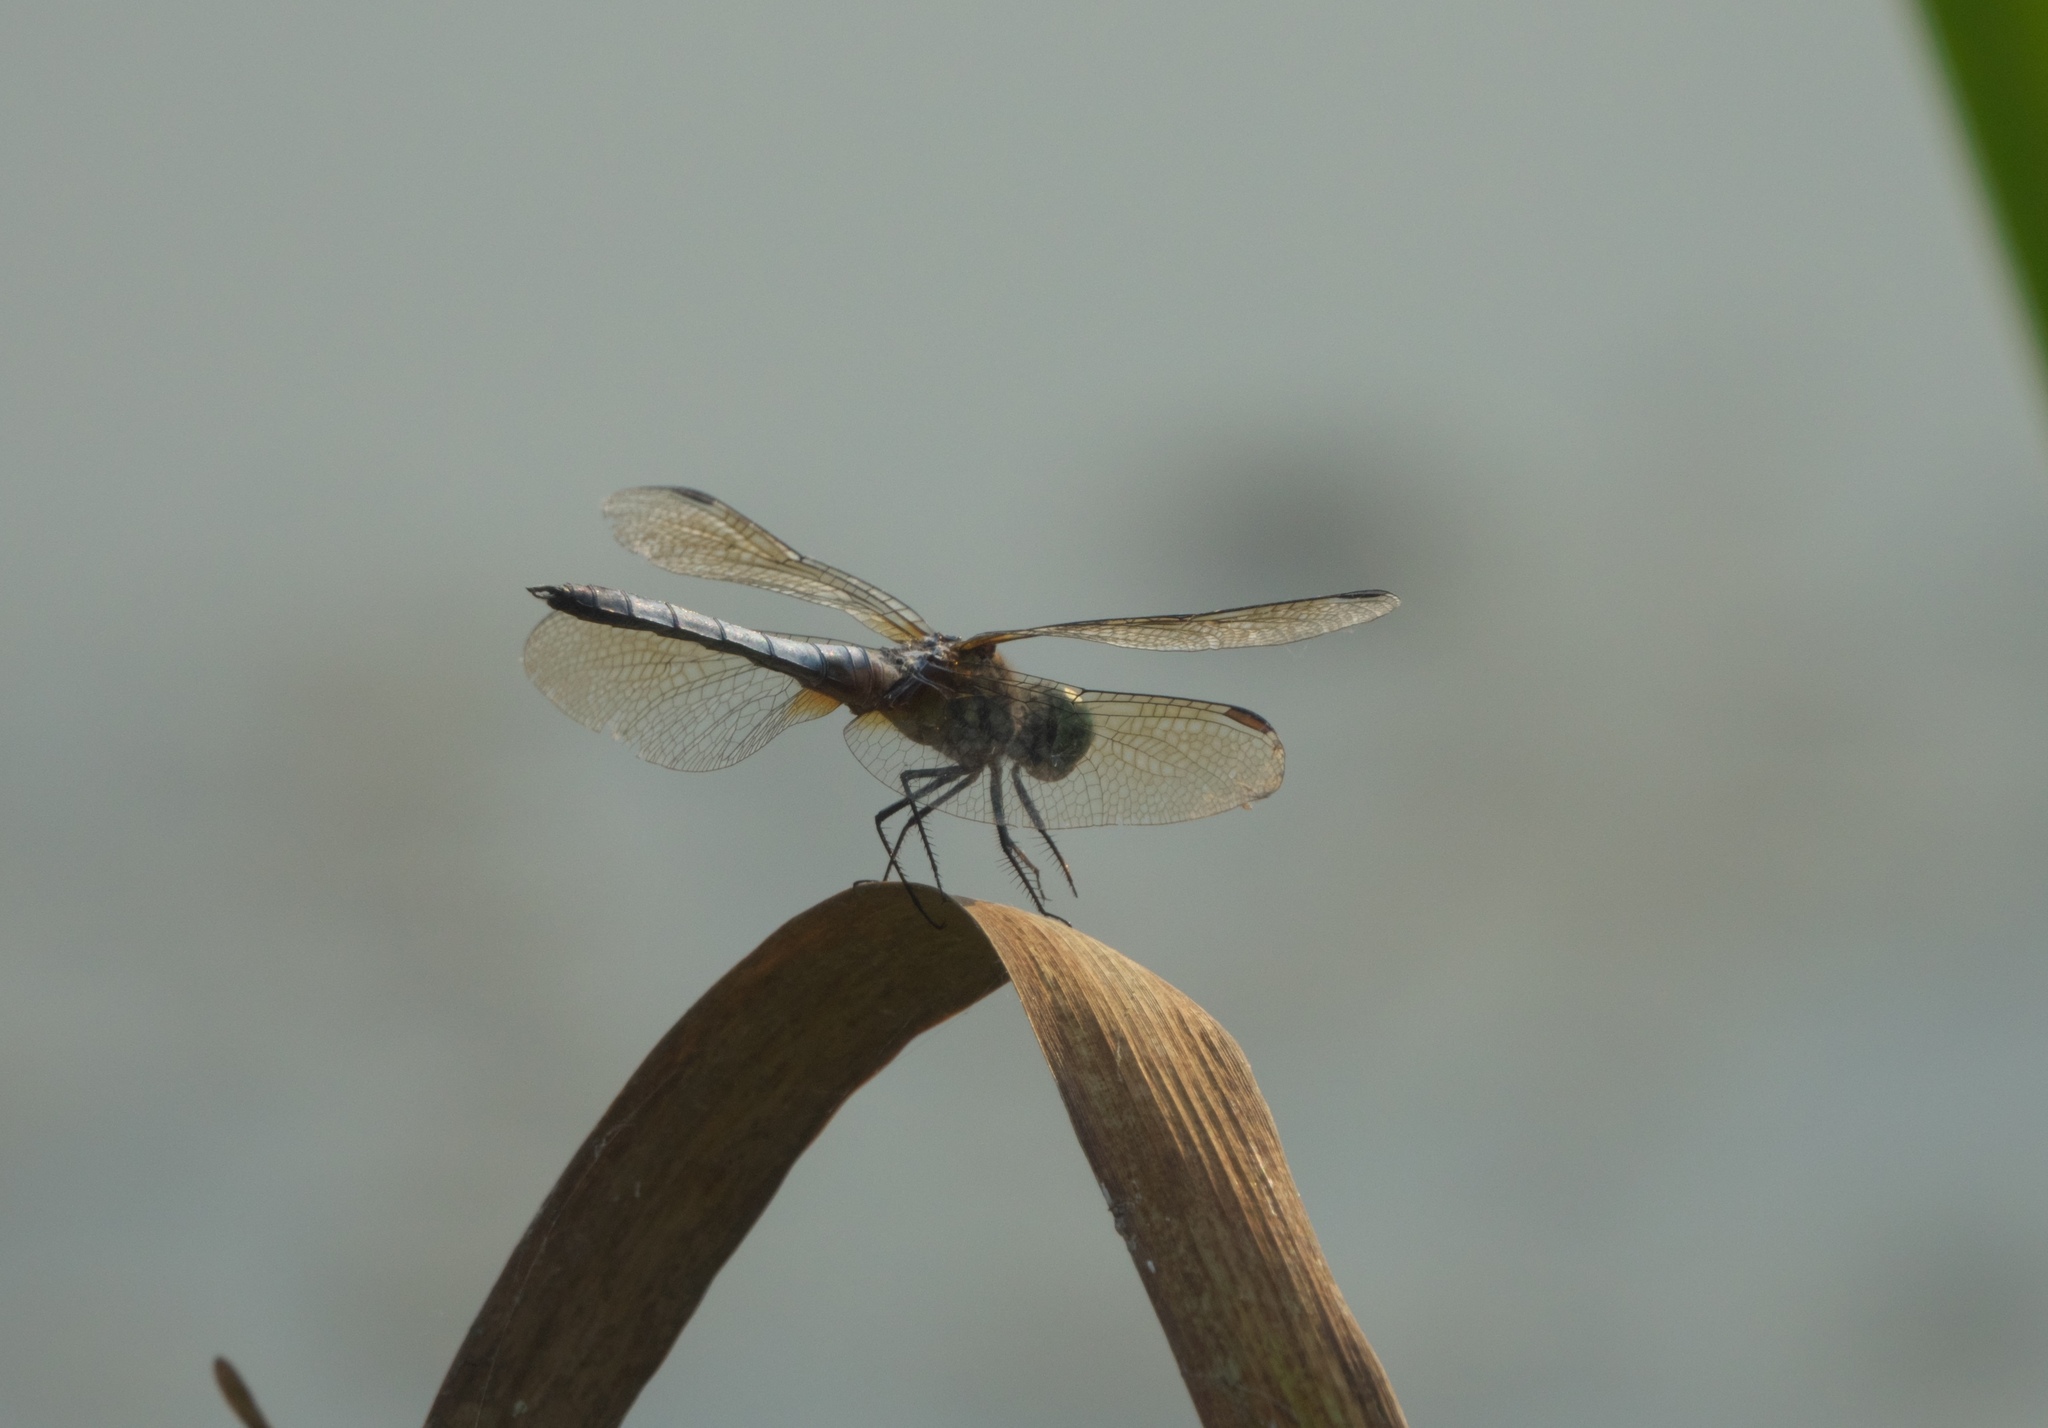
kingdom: Animalia
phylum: Arthropoda
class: Insecta
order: Odonata
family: Libellulidae
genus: Pachydiplax
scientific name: Pachydiplax longipennis
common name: Blue dasher
